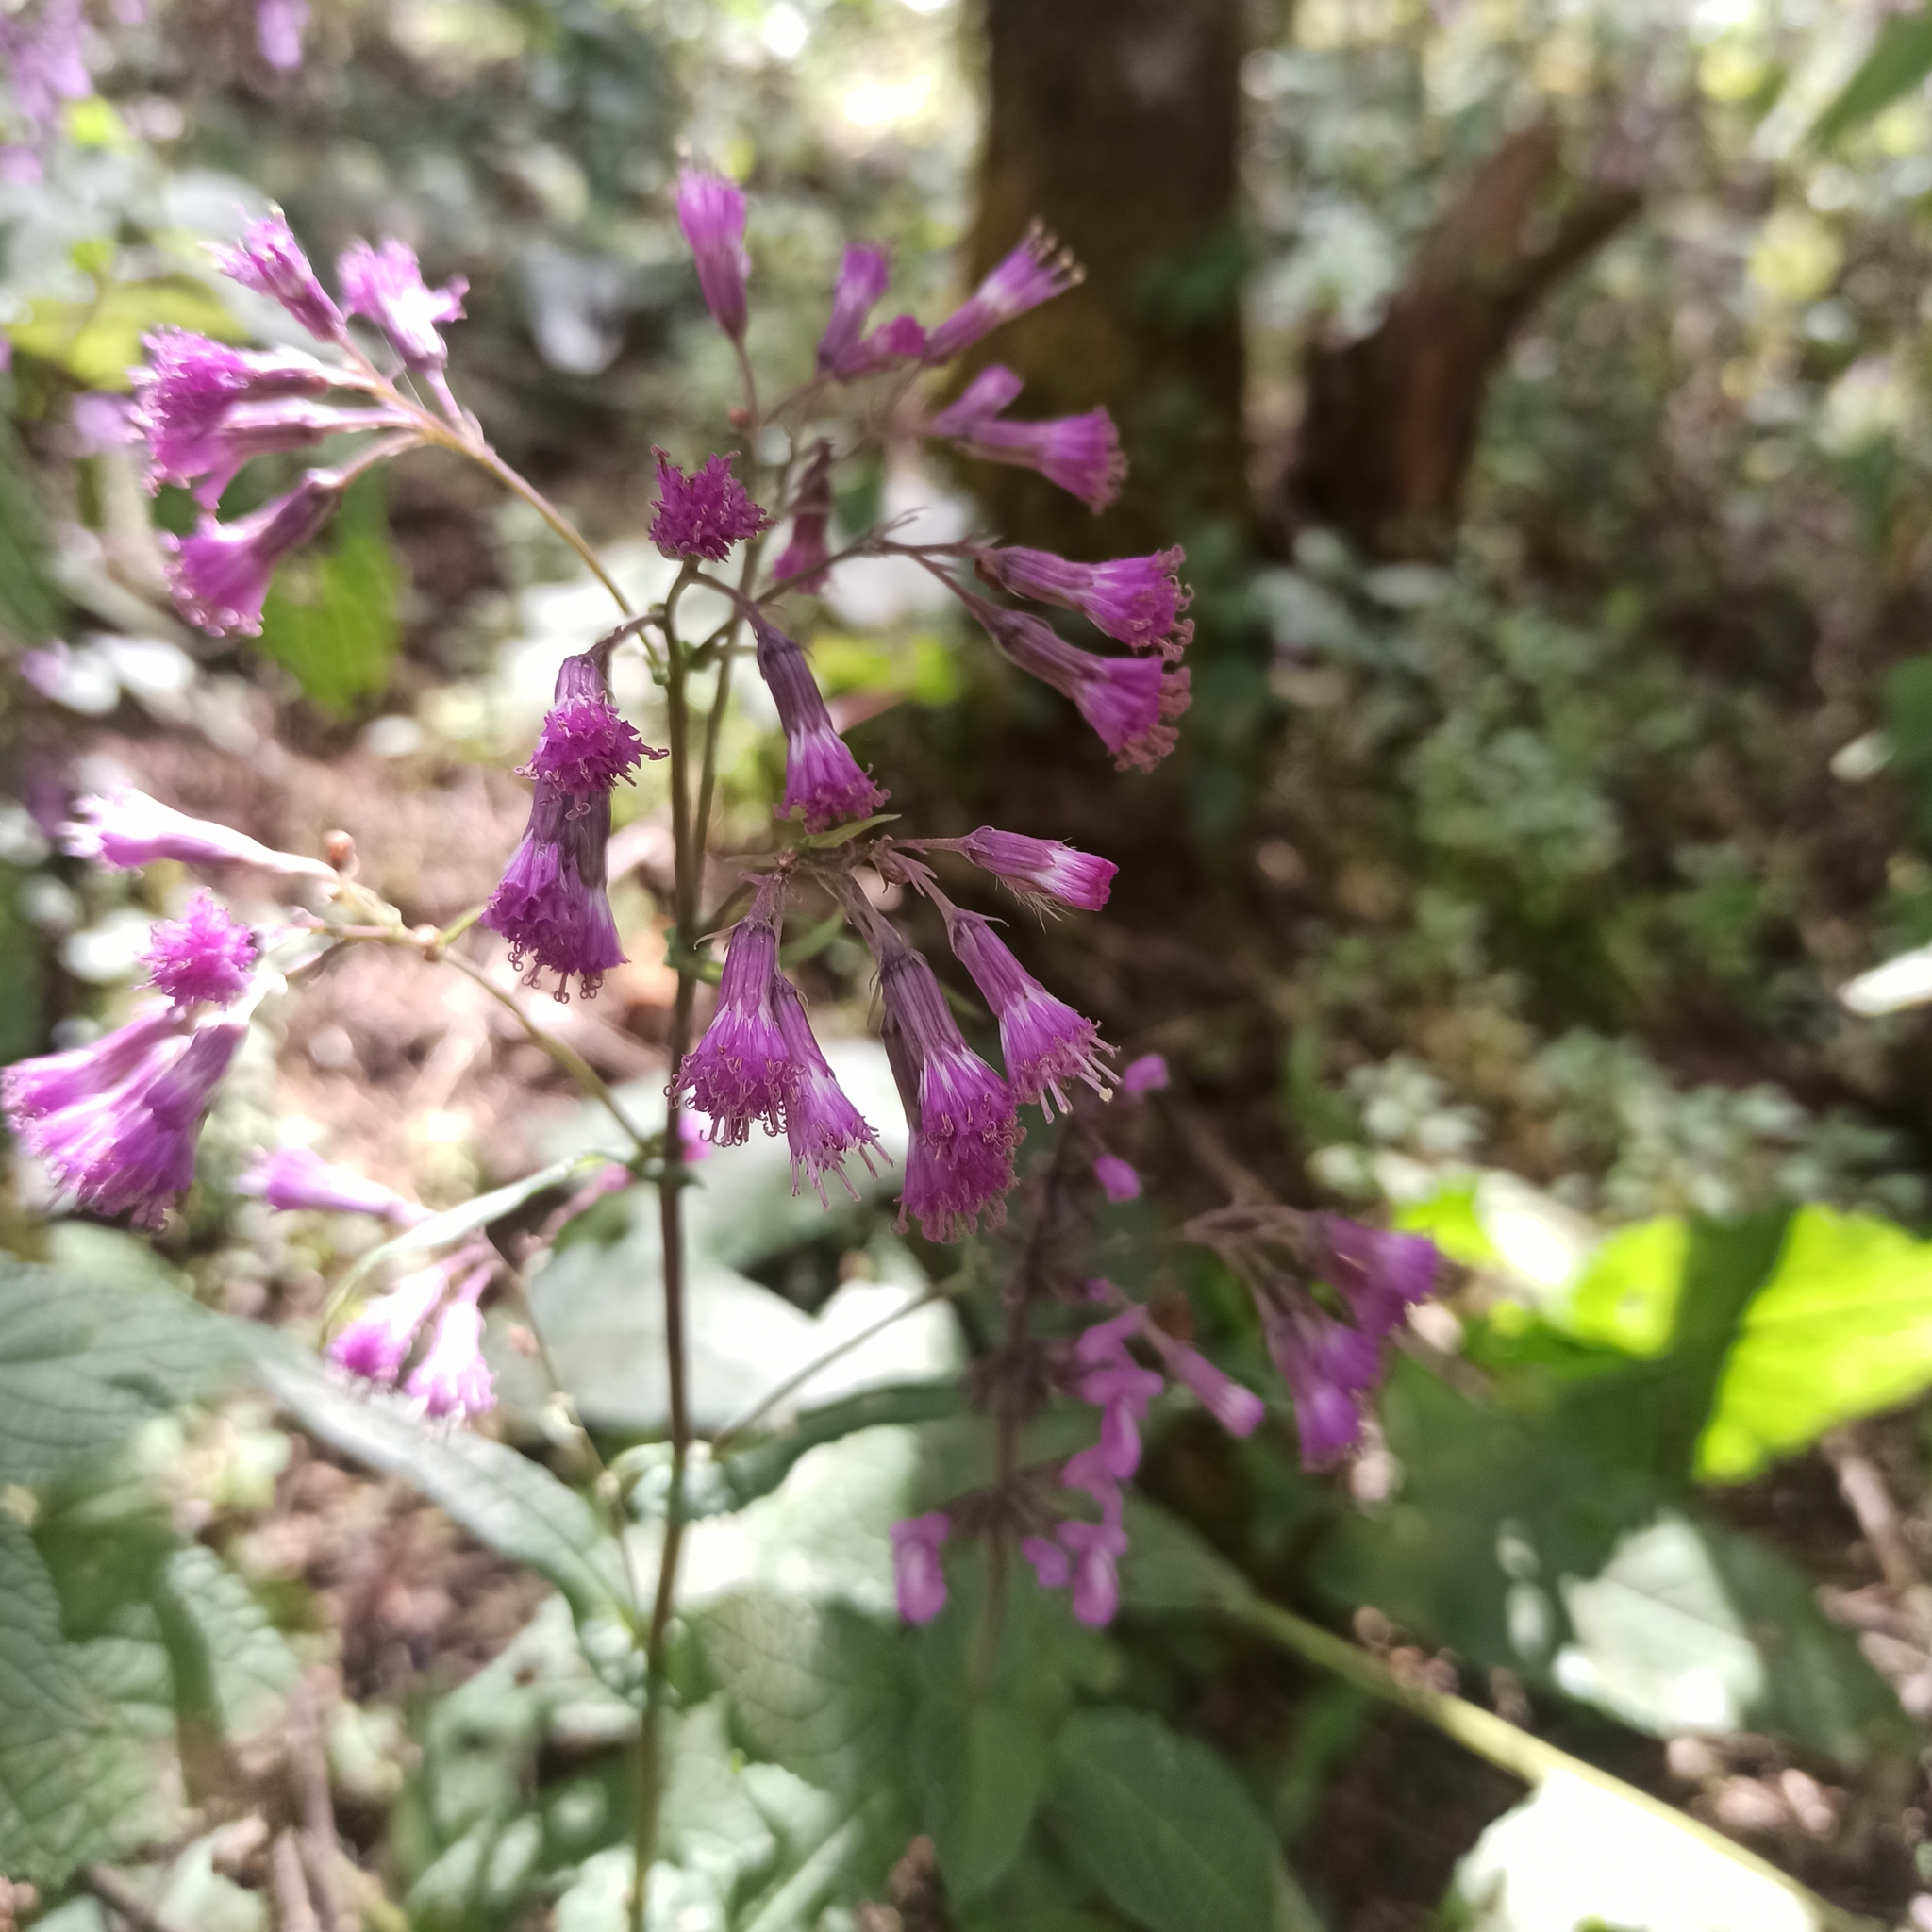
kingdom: Plantae
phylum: Tracheophyta
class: Magnoliopsida
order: Asterales
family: Asteraceae
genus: Senecio
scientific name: Senecio callosus
